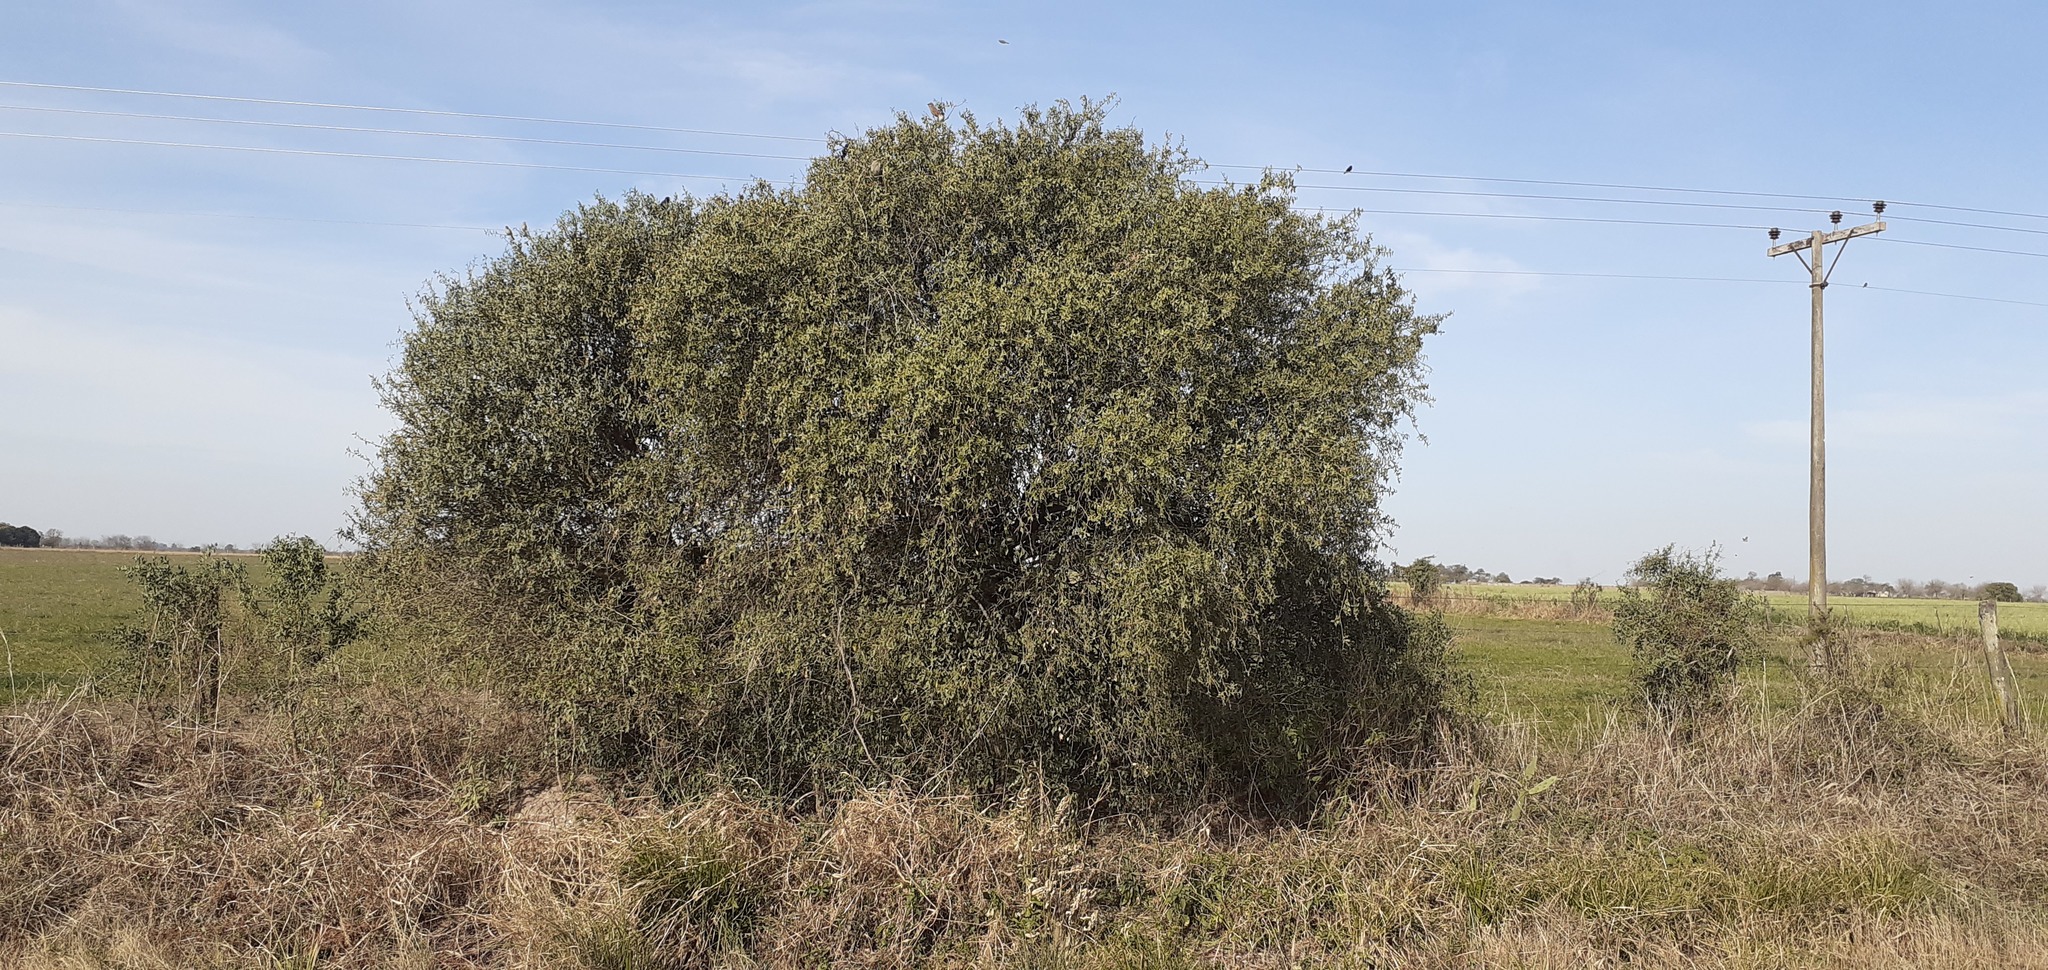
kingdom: Plantae
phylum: Tracheophyta
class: Magnoliopsida
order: Santalales
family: Cervantesiaceae
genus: Jodina
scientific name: Jodina rhombifolia
